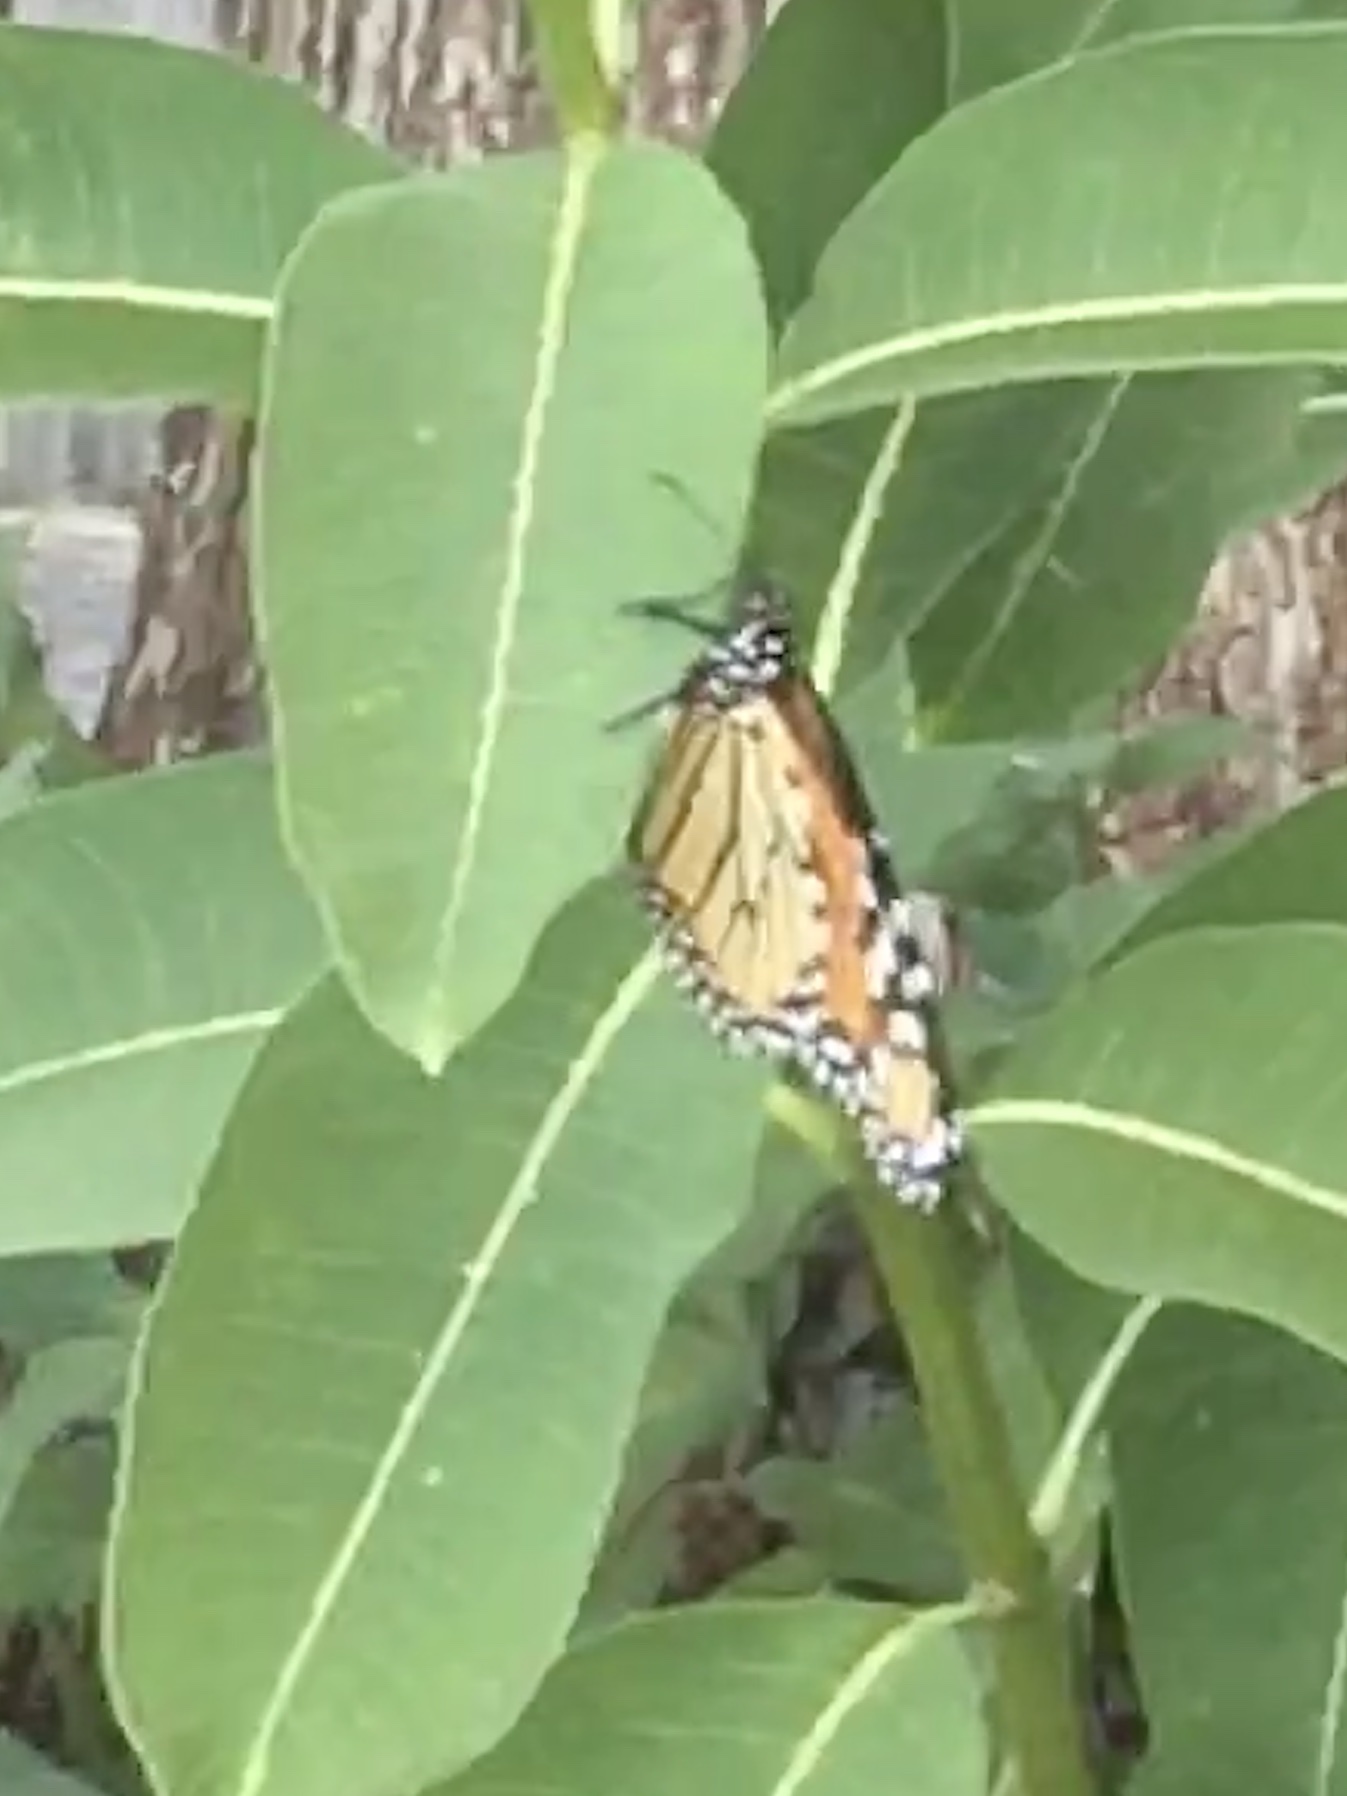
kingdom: Animalia
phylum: Arthropoda
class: Insecta
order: Lepidoptera
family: Nymphalidae
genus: Danaus
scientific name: Danaus plexippus
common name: Monarch
